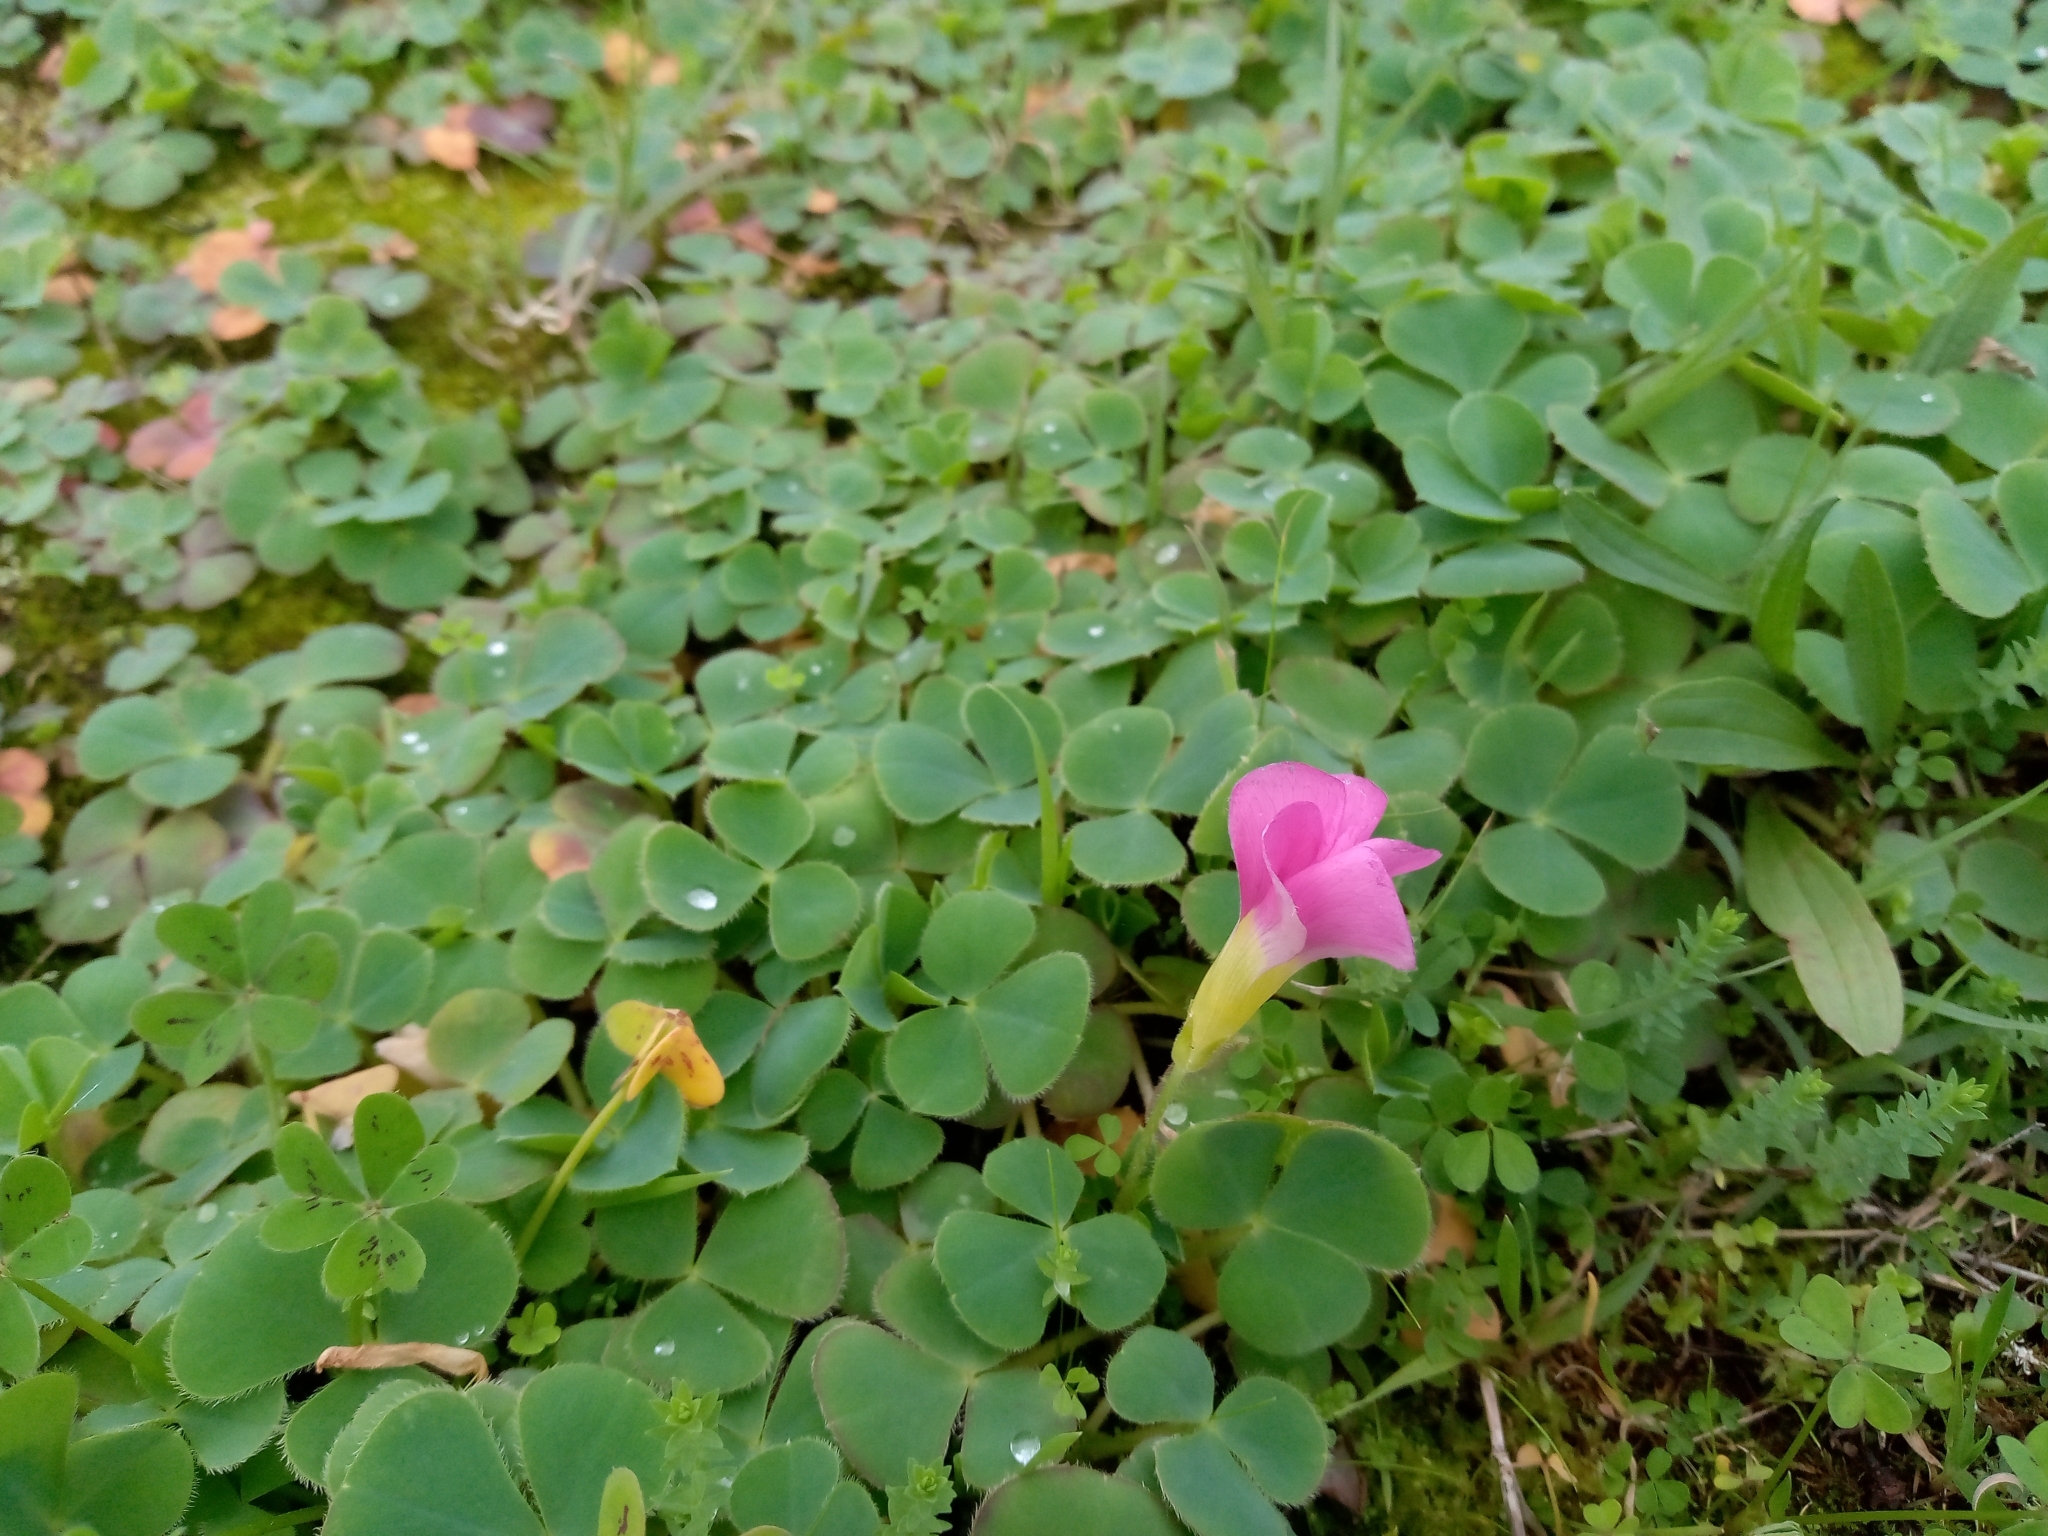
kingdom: Plantae
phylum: Tracheophyta
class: Magnoliopsida
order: Oxalidales
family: Oxalidaceae
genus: Oxalis
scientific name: Oxalis purpurea
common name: Purple woodsorrel
